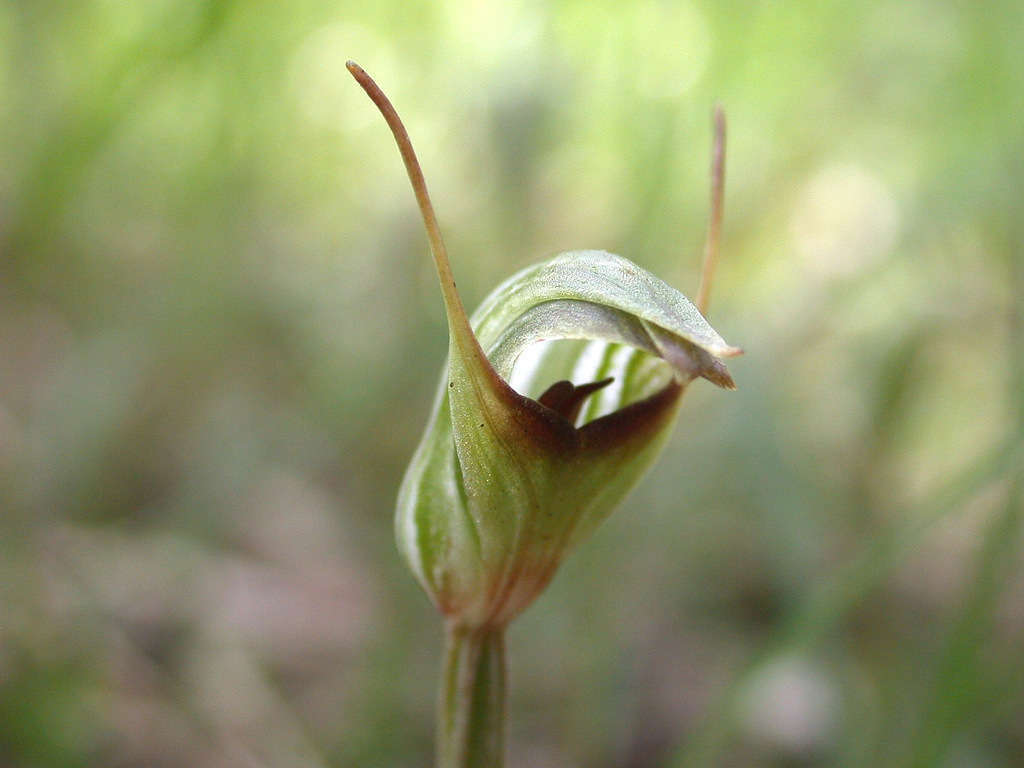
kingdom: Plantae
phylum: Tracheophyta
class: Liliopsida
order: Asparagales
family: Orchidaceae
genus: Pterostylis
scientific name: Pterostylis concinna
